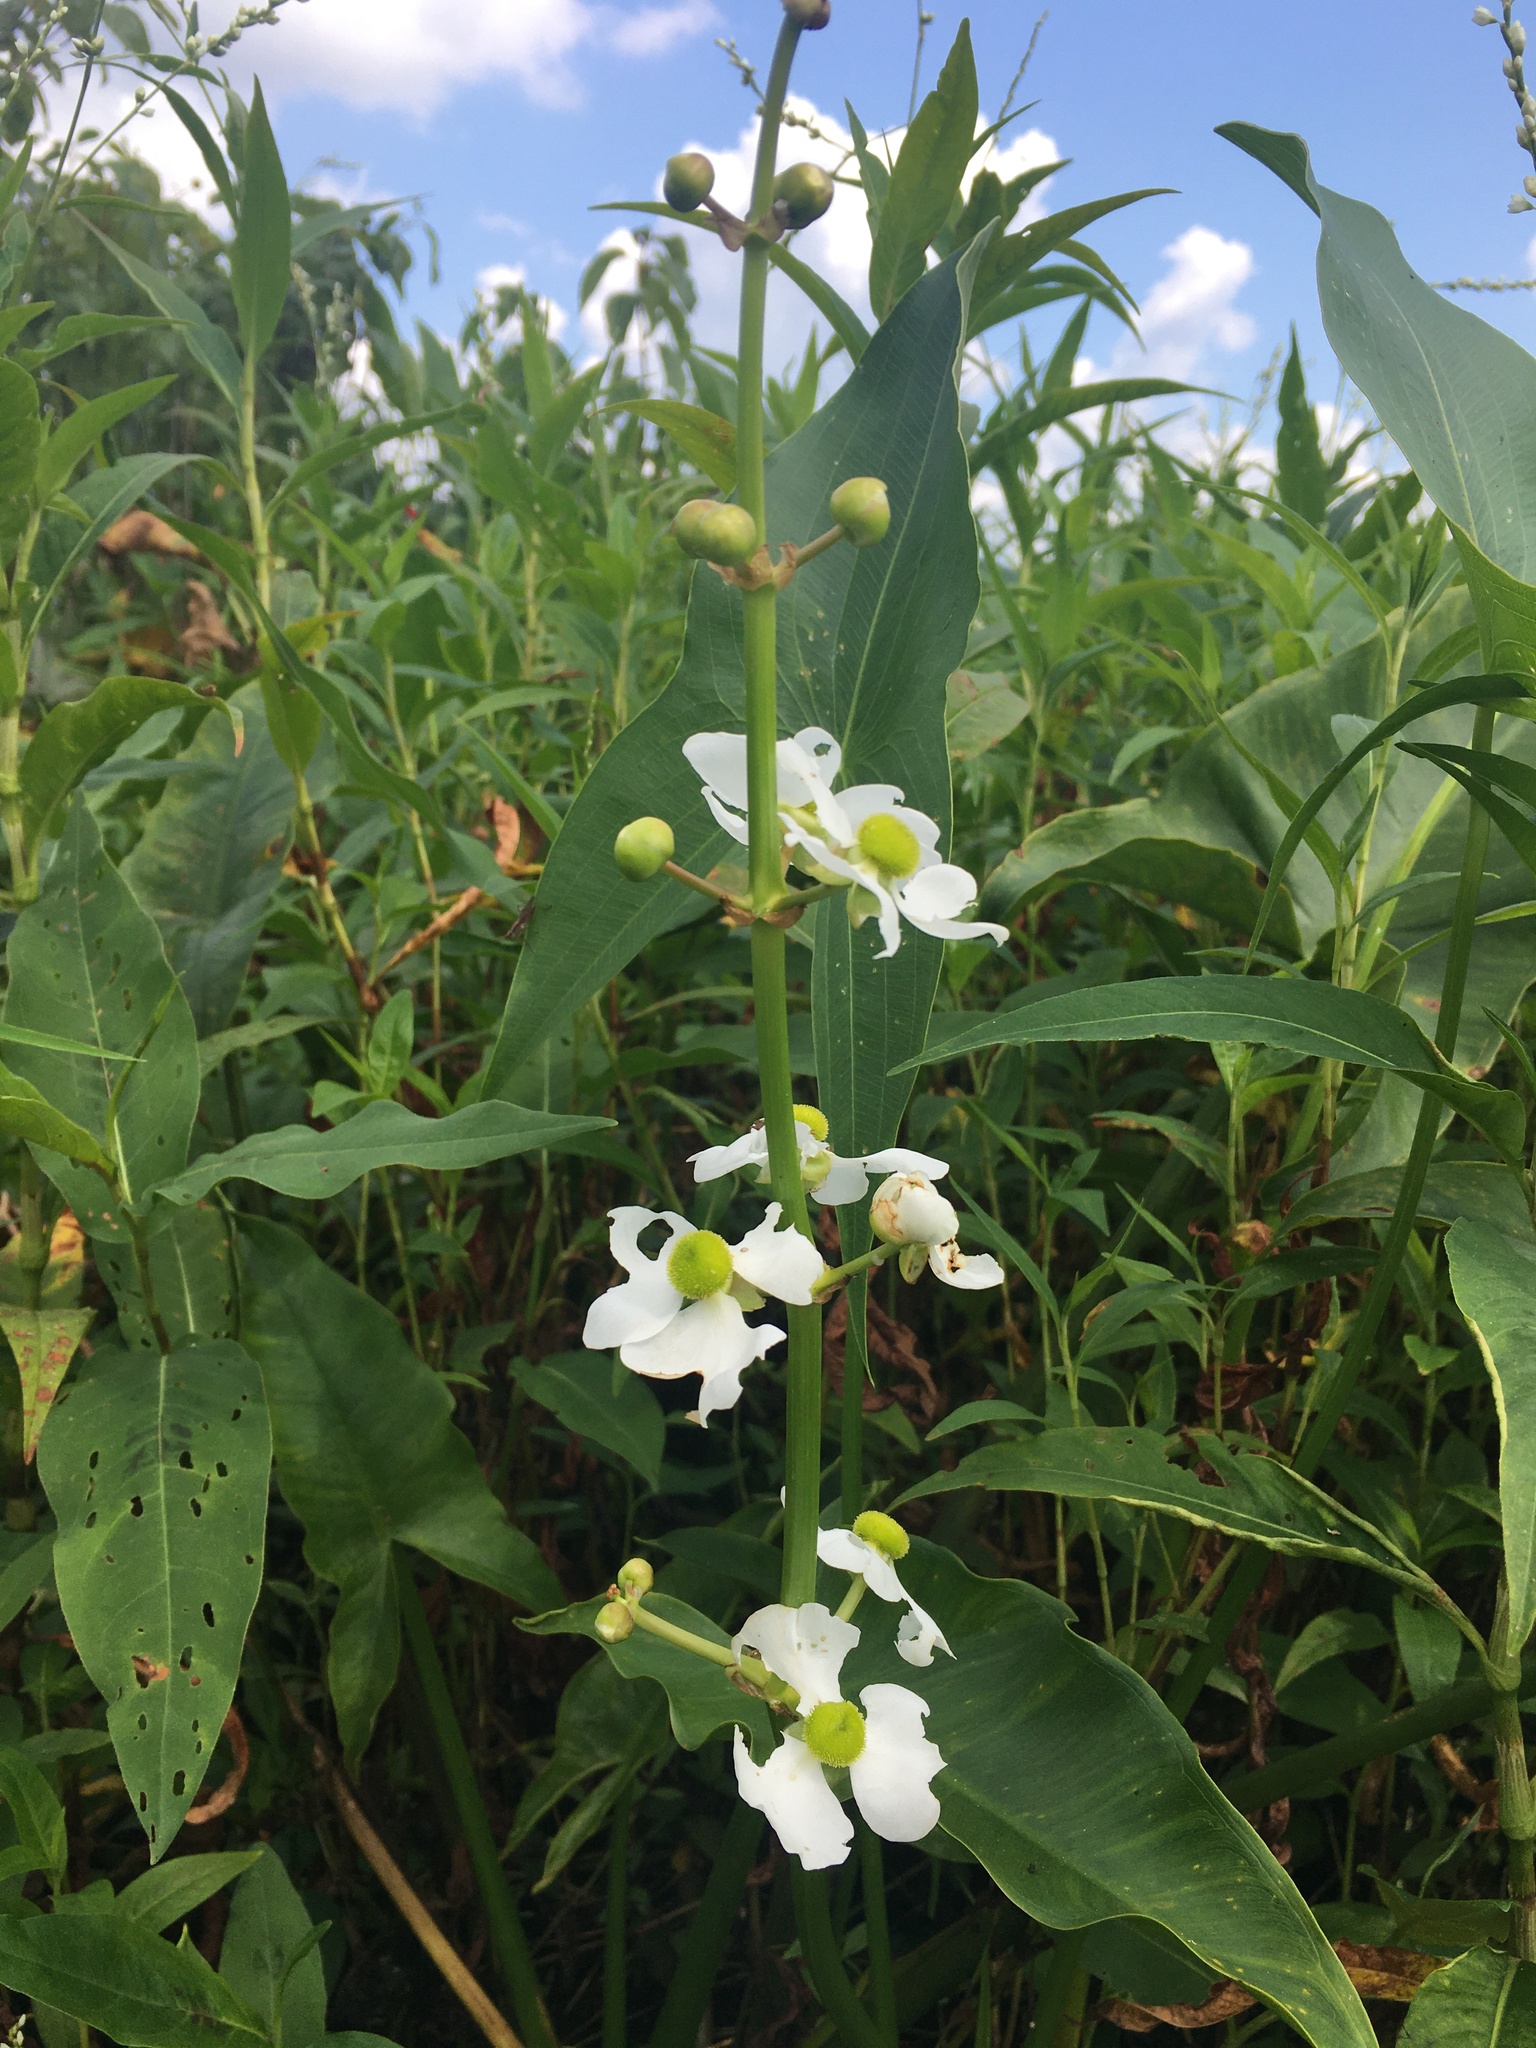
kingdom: Plantae
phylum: Tracheophyta
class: Liliopsida
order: Alismatales
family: Alismataceae
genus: Sagittaria
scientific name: Sagittaria latifolia
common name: Duck-potato
